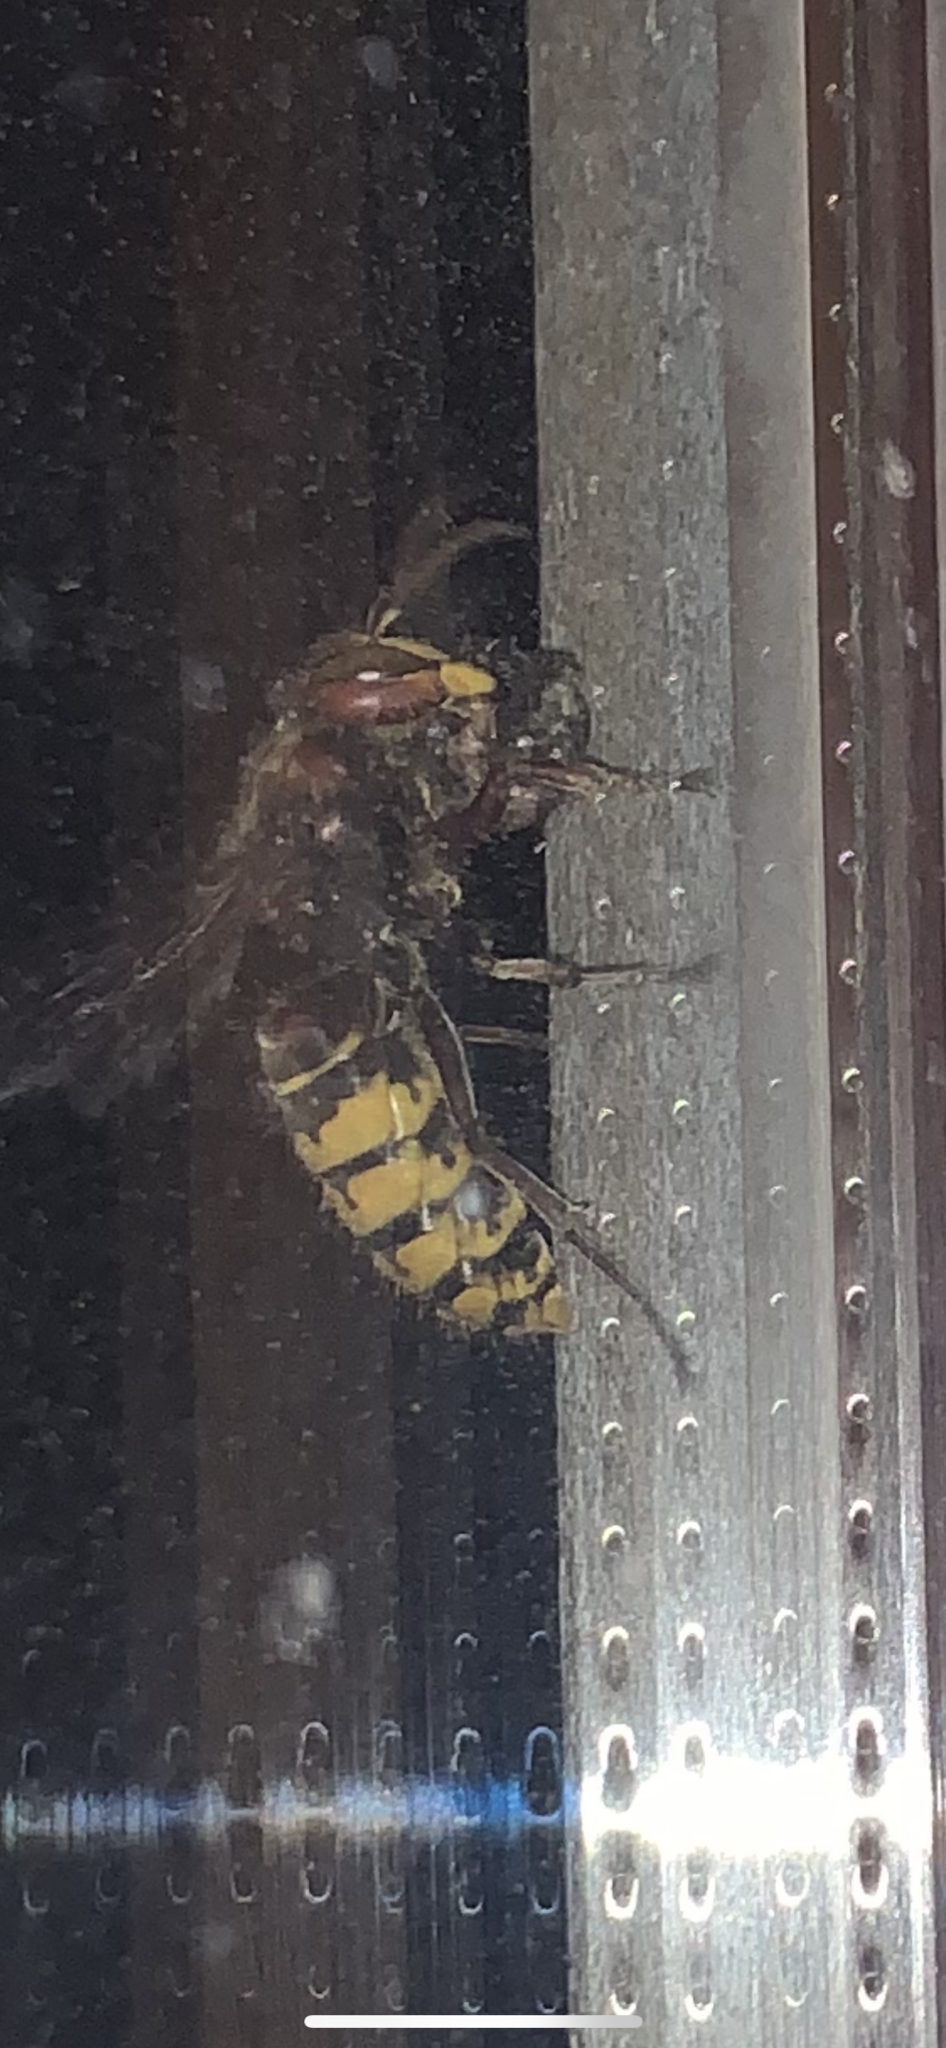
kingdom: Animalia
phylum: Arthropoda
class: Insecta
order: Hymenoptera
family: Vespidae
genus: Vespa
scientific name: Vespa crabro
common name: Hornet
